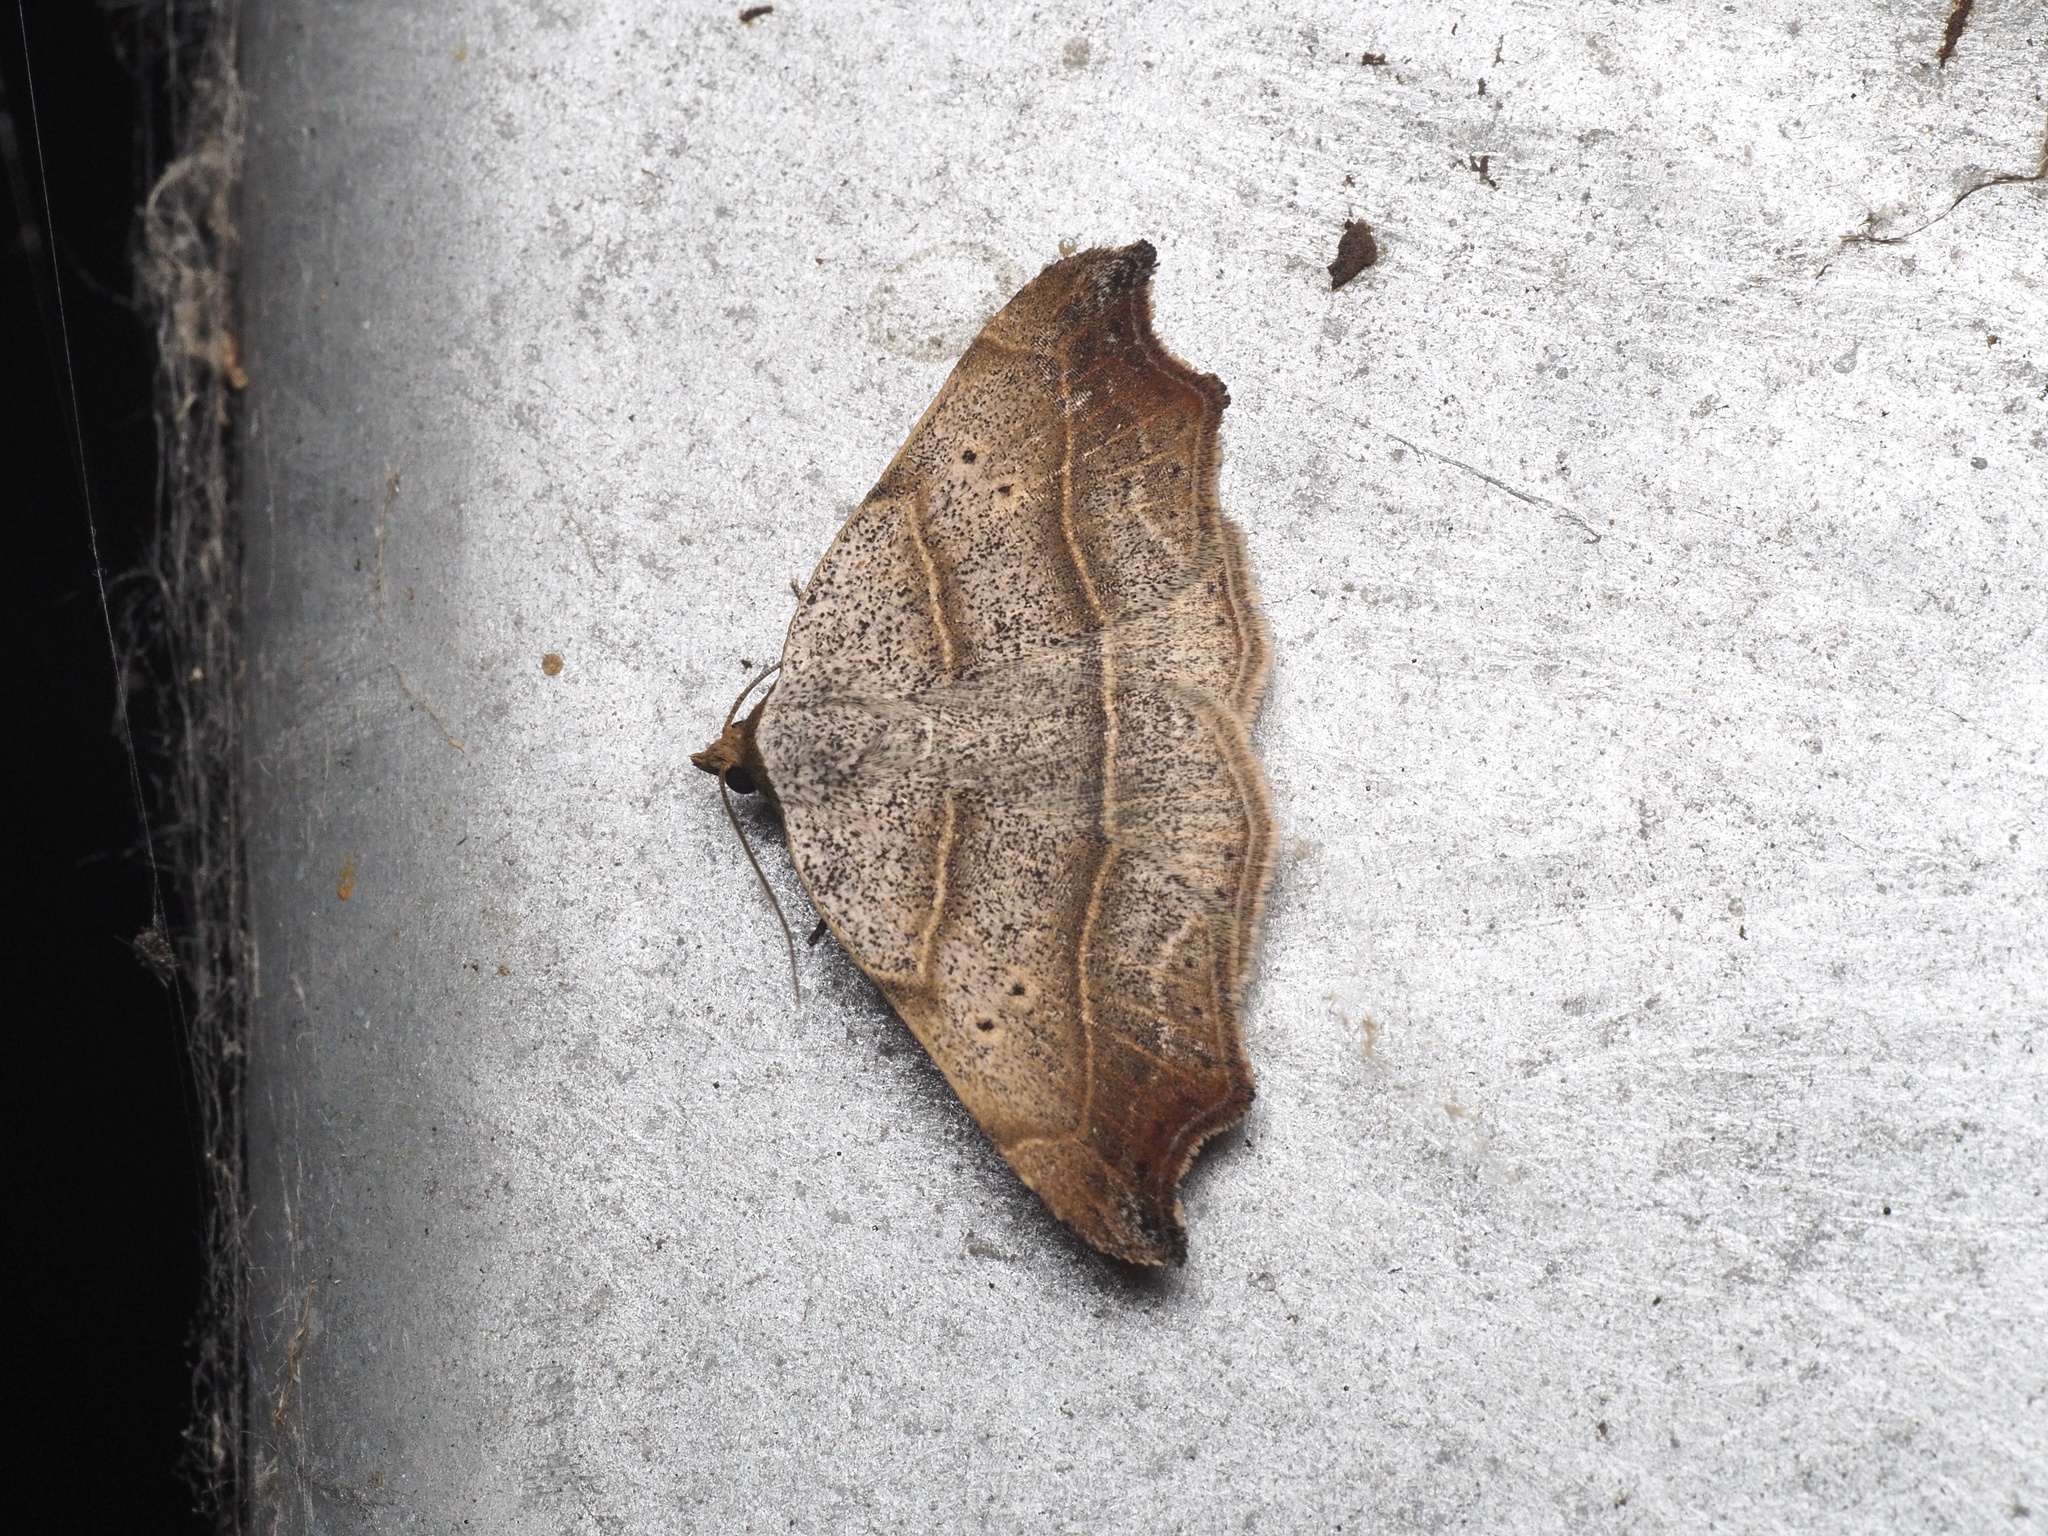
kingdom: Animalia
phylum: Arthropoda
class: Insecta
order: Lepidoptera
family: Erebidae
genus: Laspeyria
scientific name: Laspeyria flexula
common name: Beautiful hook-tip
